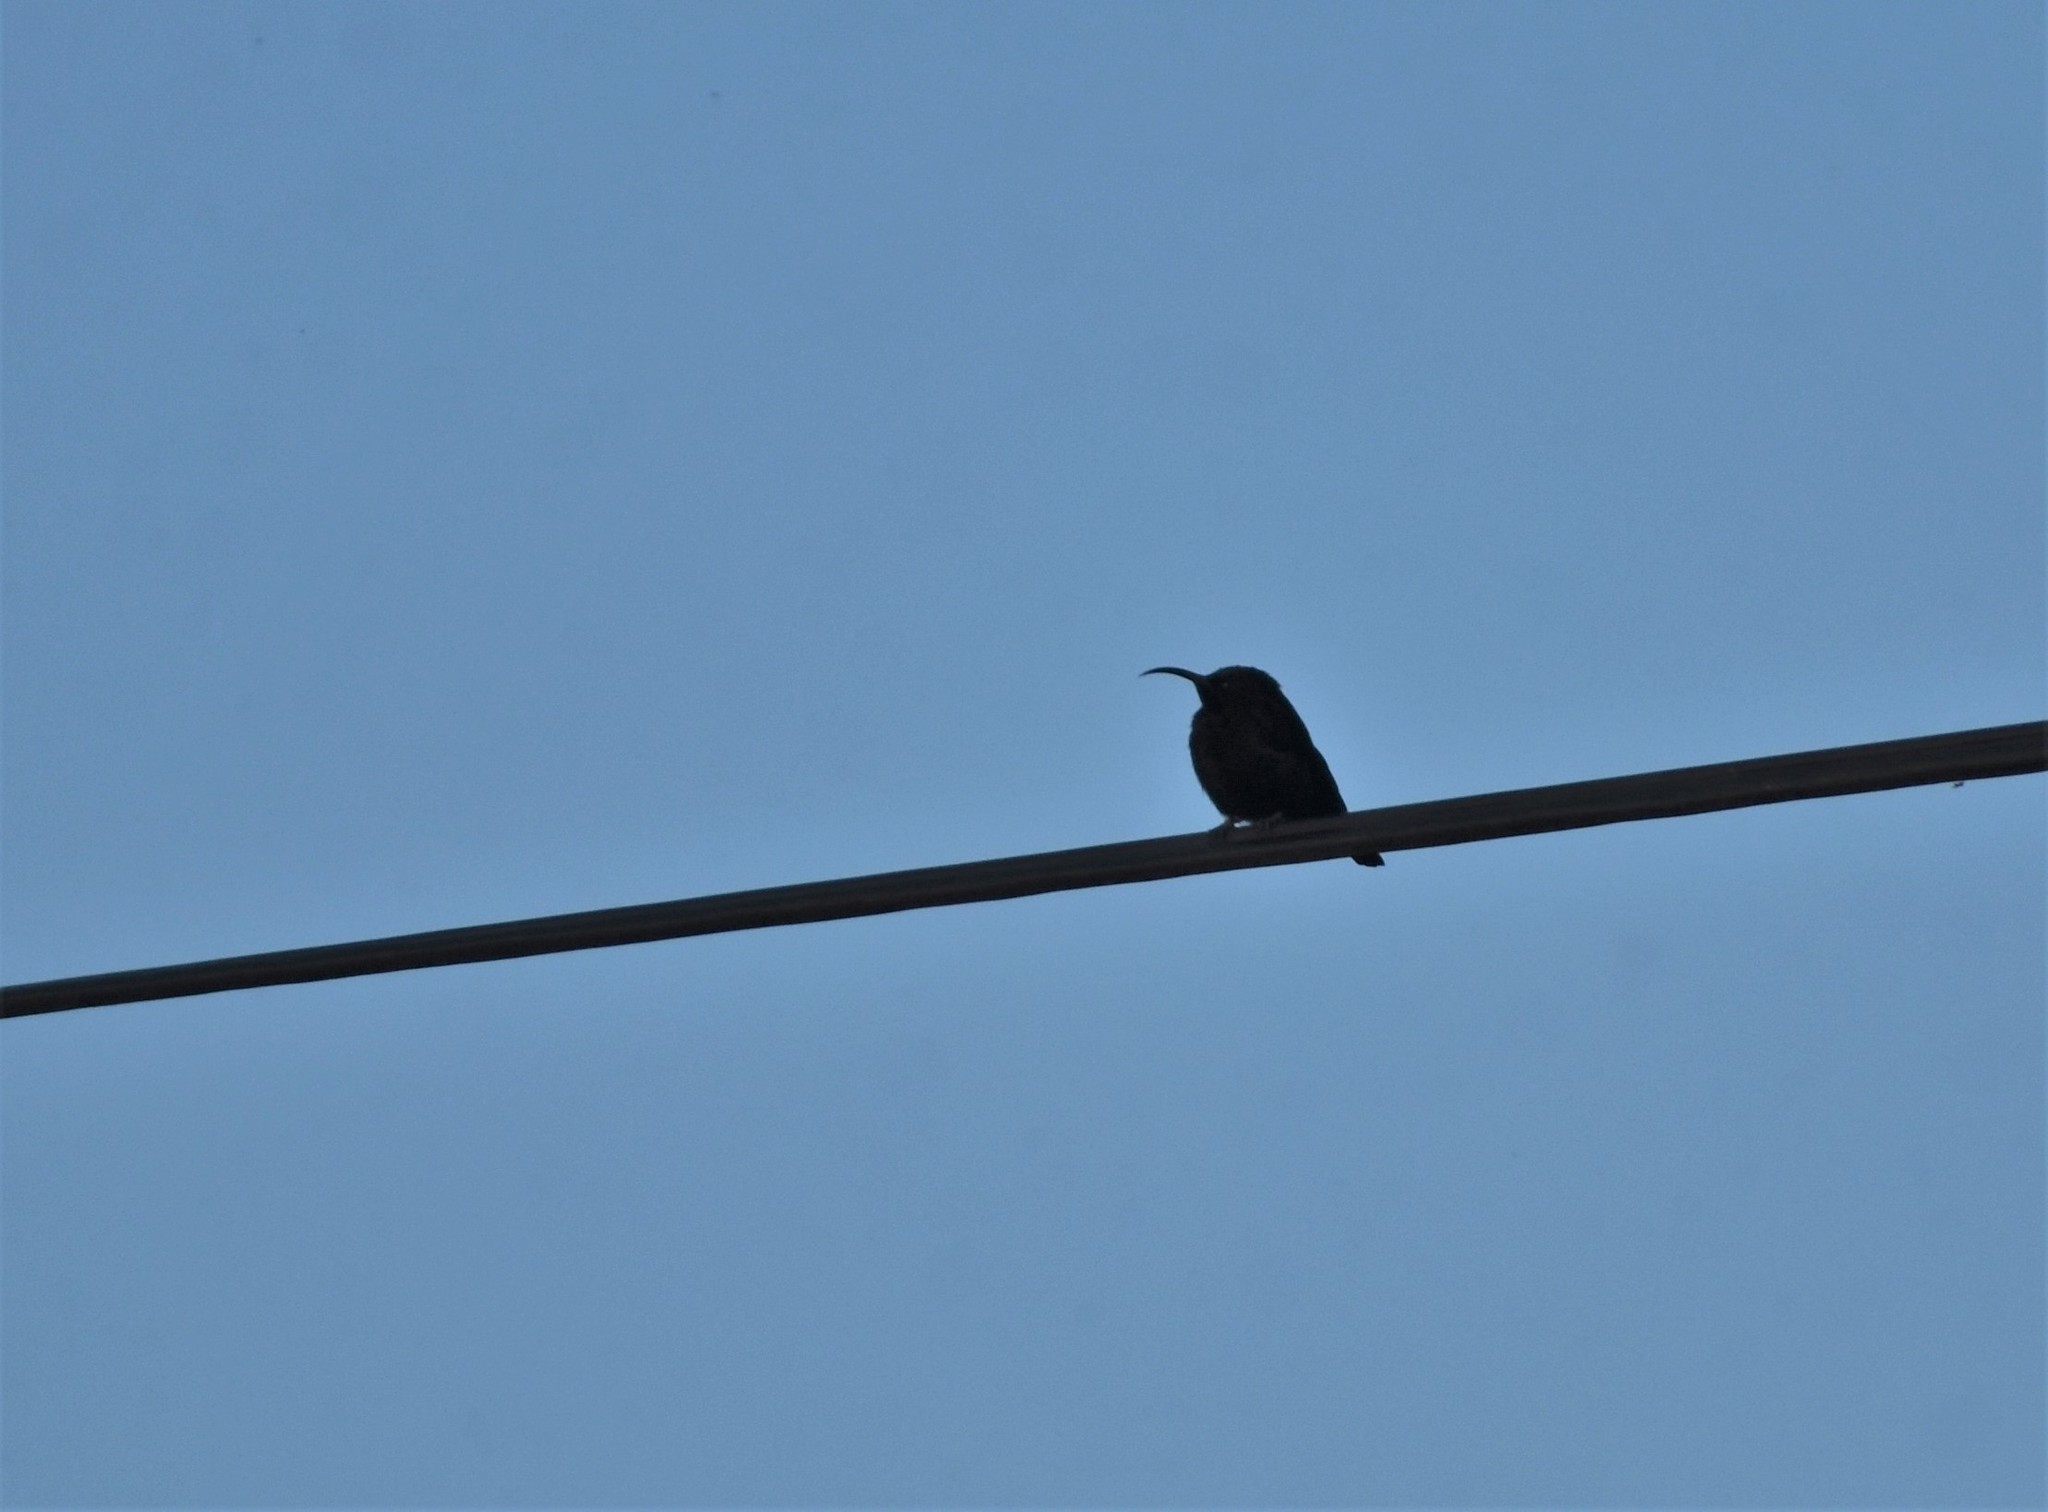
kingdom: Animalia
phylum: Chordata
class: Aves
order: Passeriformes
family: Nectariniidae
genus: Chalcomitra
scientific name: Chalcomitra amethystina
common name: Amethyst sunbird
